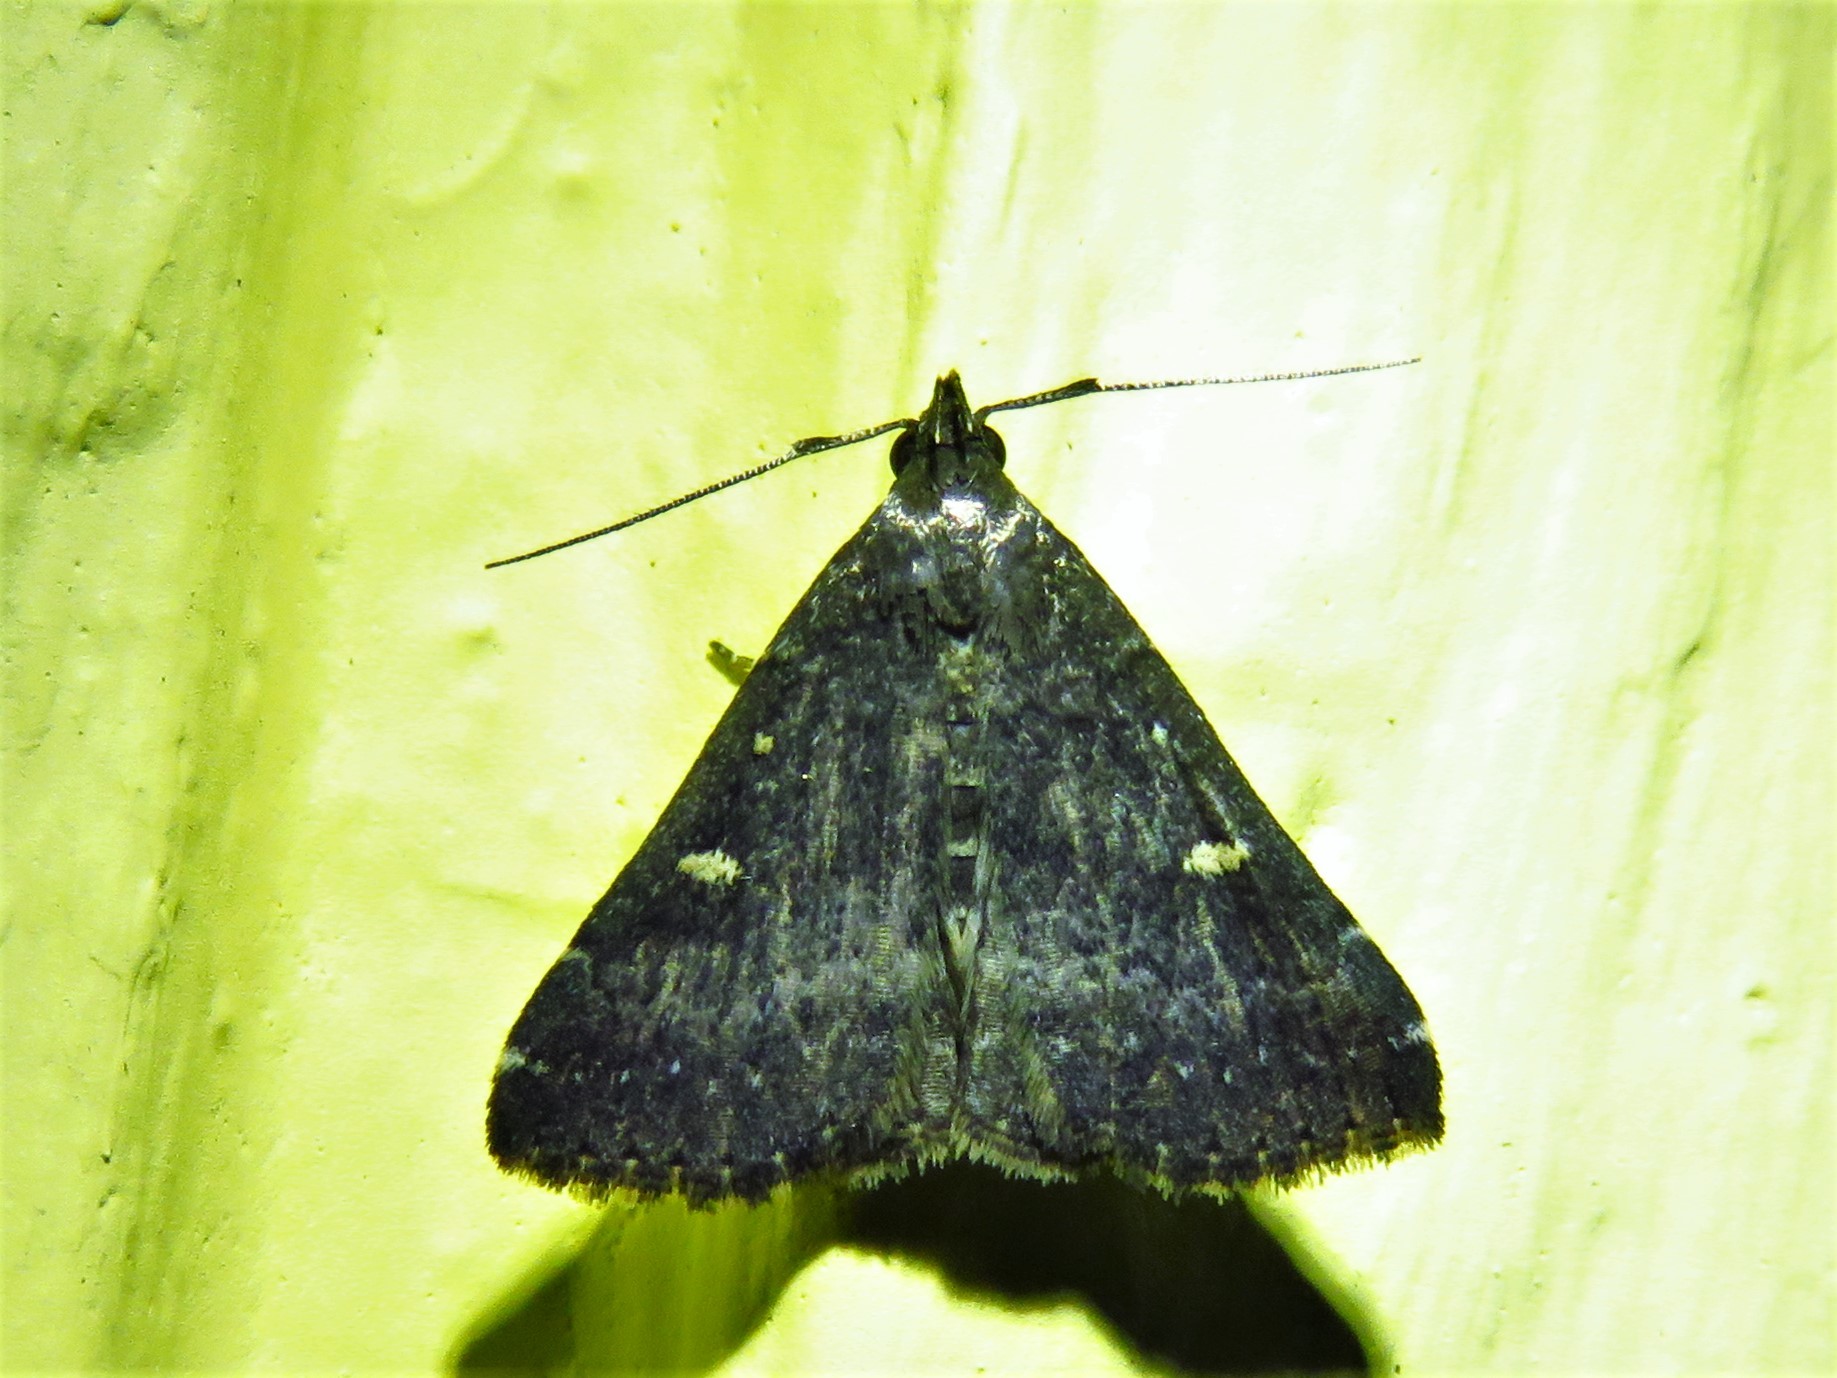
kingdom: Animalia
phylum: Arthropoda
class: Insecta
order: Lepidoptera
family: Erebidae
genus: Tetanolita
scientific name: Tetanolita mynesalis
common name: Smoky tetanolita moth
